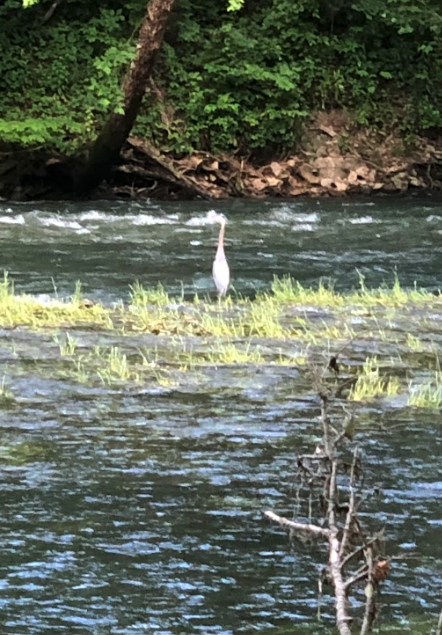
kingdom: Animalia
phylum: Chordata
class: Aves
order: Pelecaniformes
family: Ardeidae
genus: Ardea
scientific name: Ardea herodias
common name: Great blue heron
